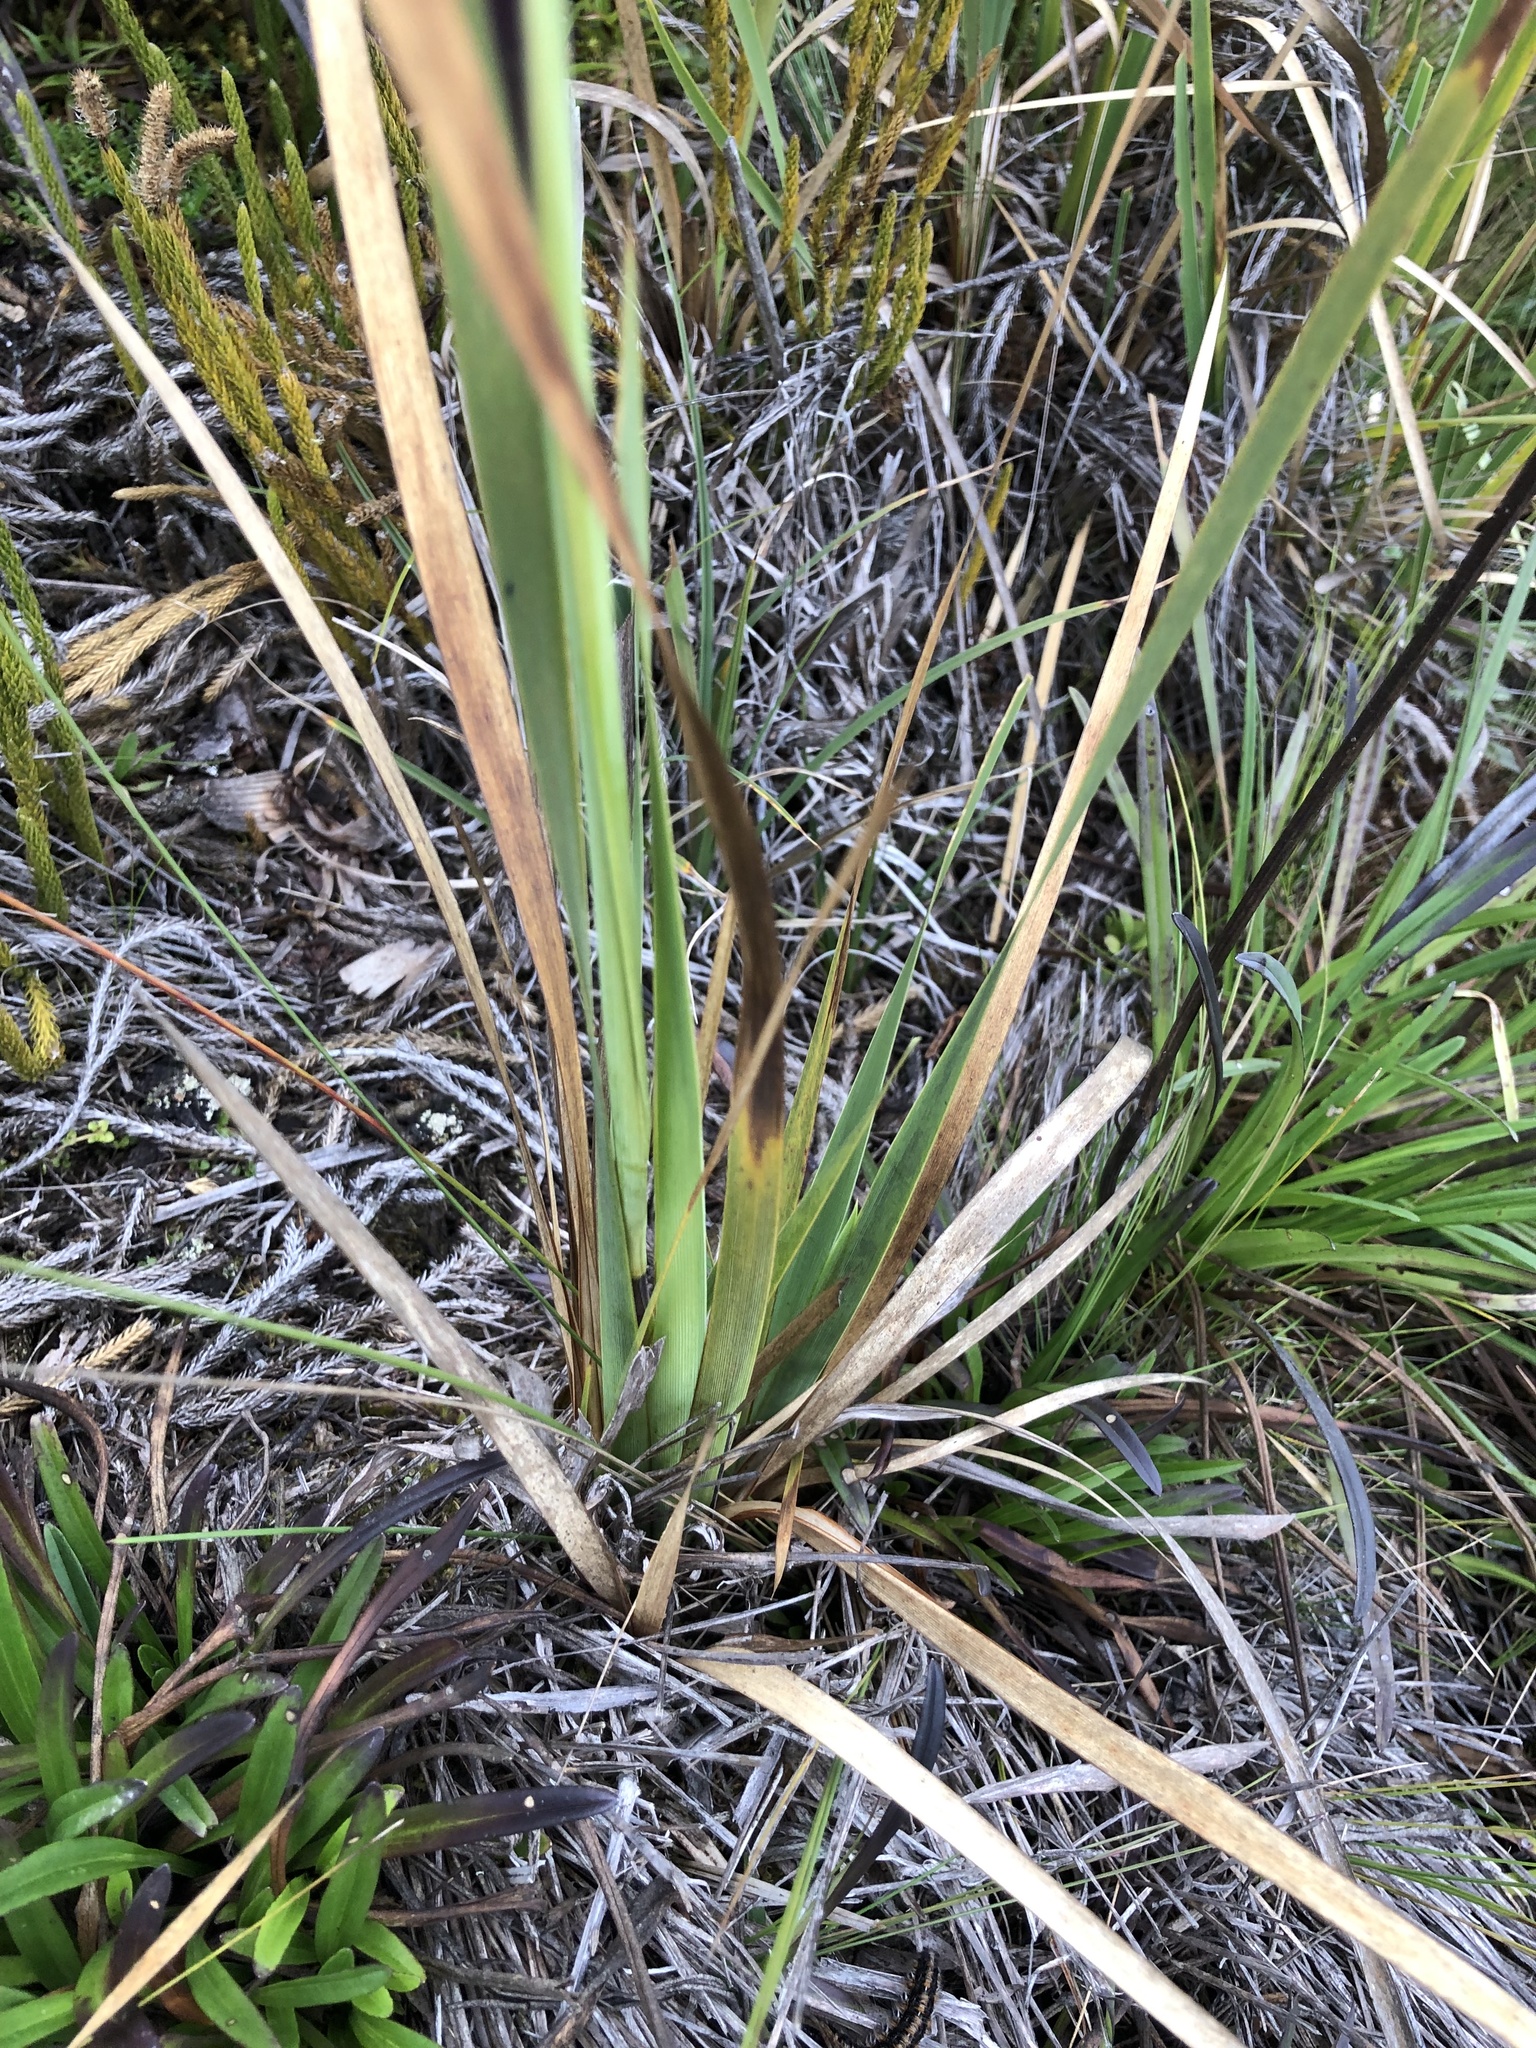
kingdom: Plantae
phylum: Tracheophyta
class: Liliopsida
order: Asparagales
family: Iridaceae
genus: Orthrosanthus
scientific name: Orthrosanthus chimboracensis
